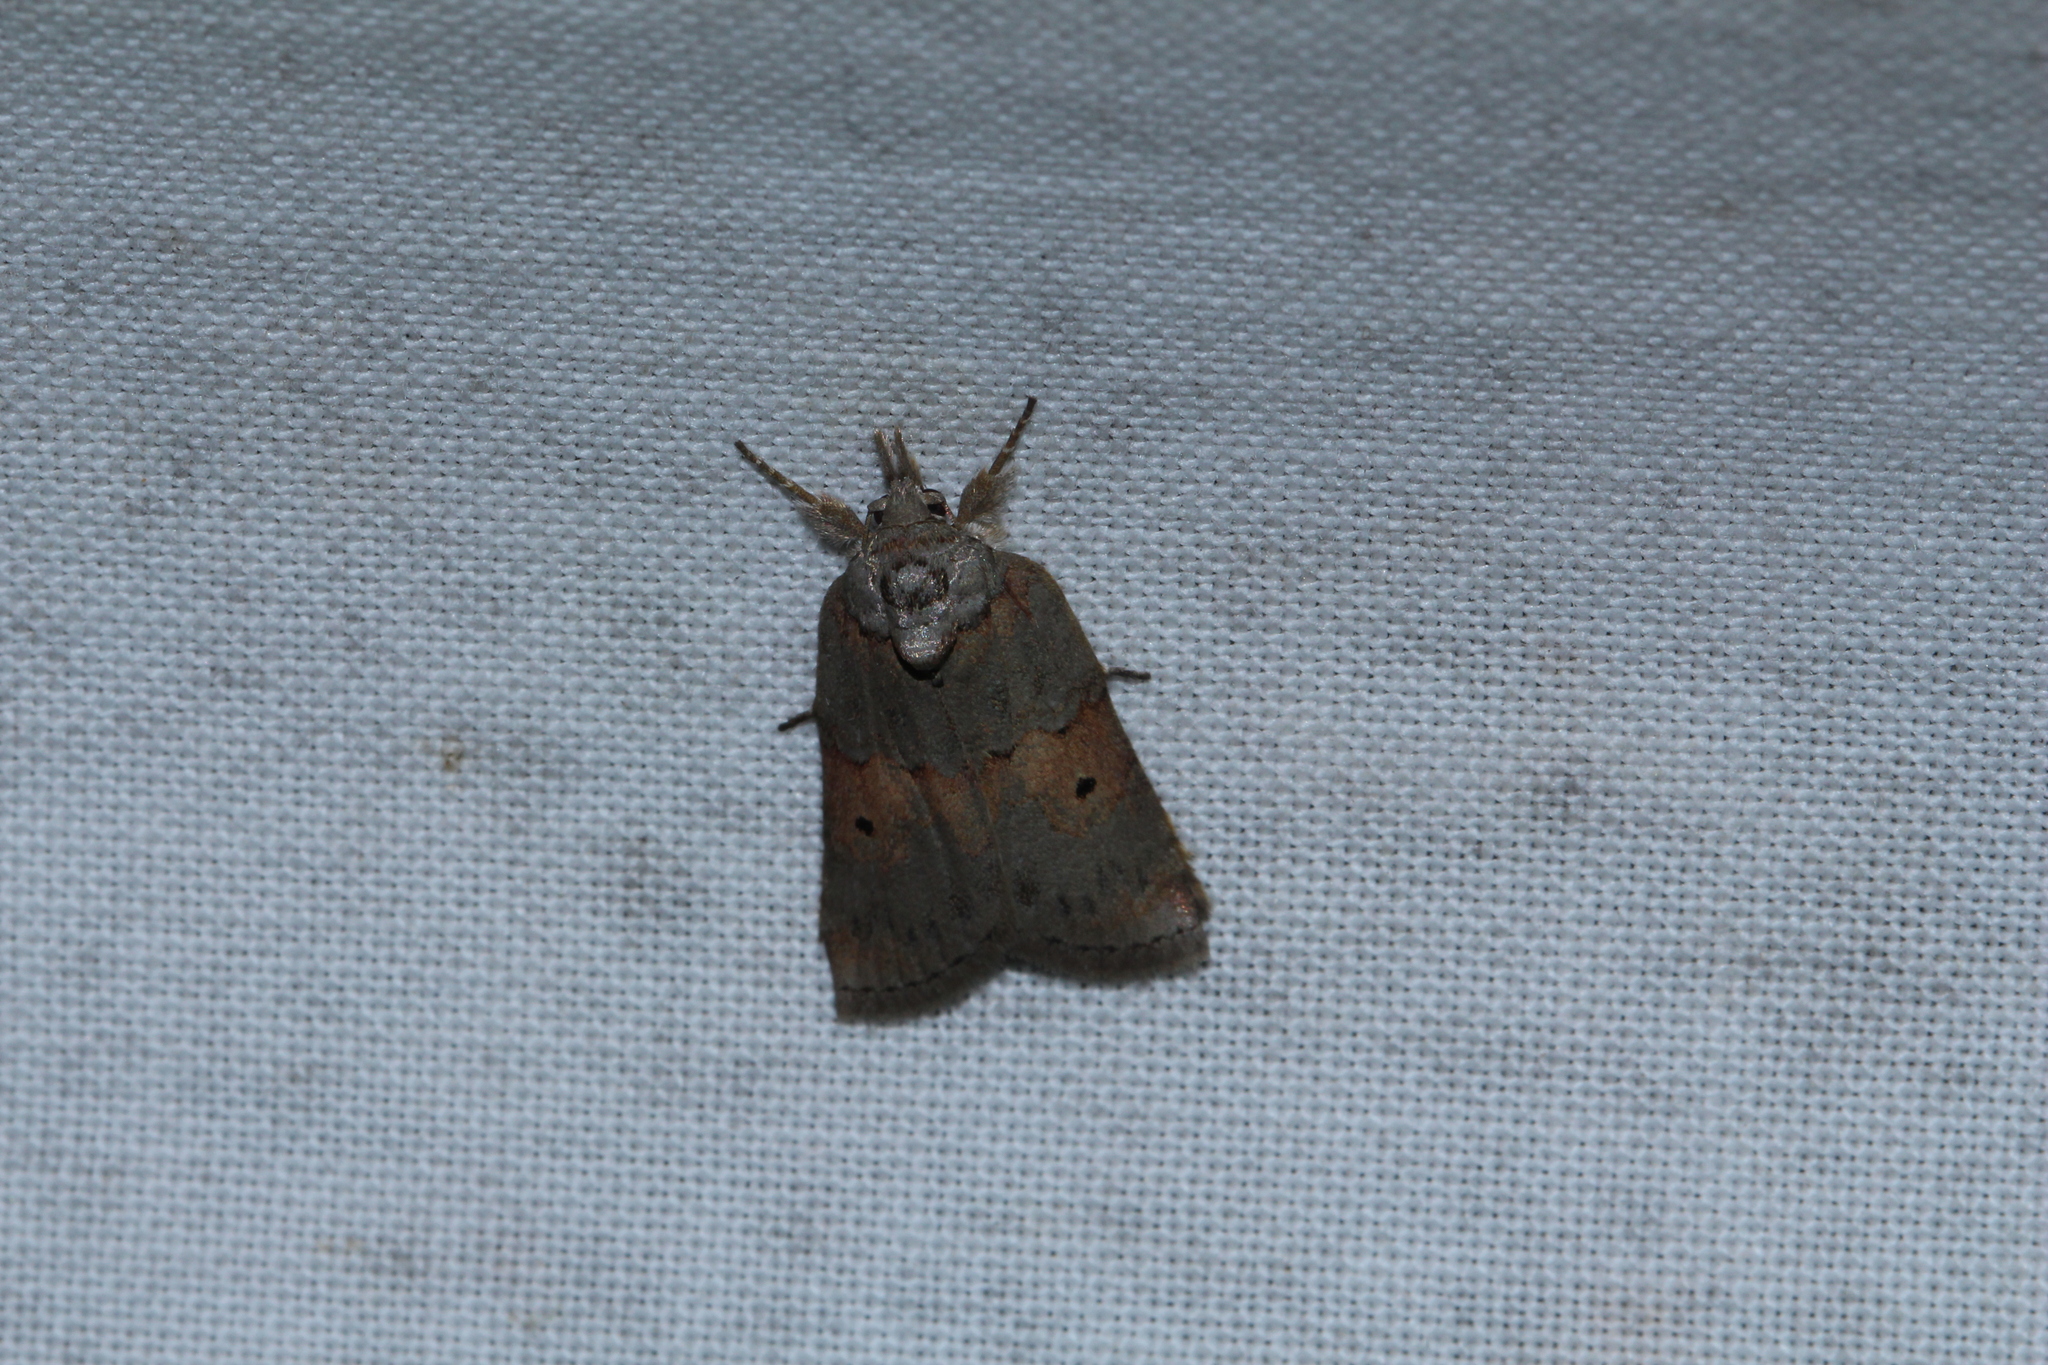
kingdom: Animalia
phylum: Arthropoda
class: Insecta
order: Lepidoptera
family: Nolidae
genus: Nycteola
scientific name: Nycteola revayana
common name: Oak nycteoline
